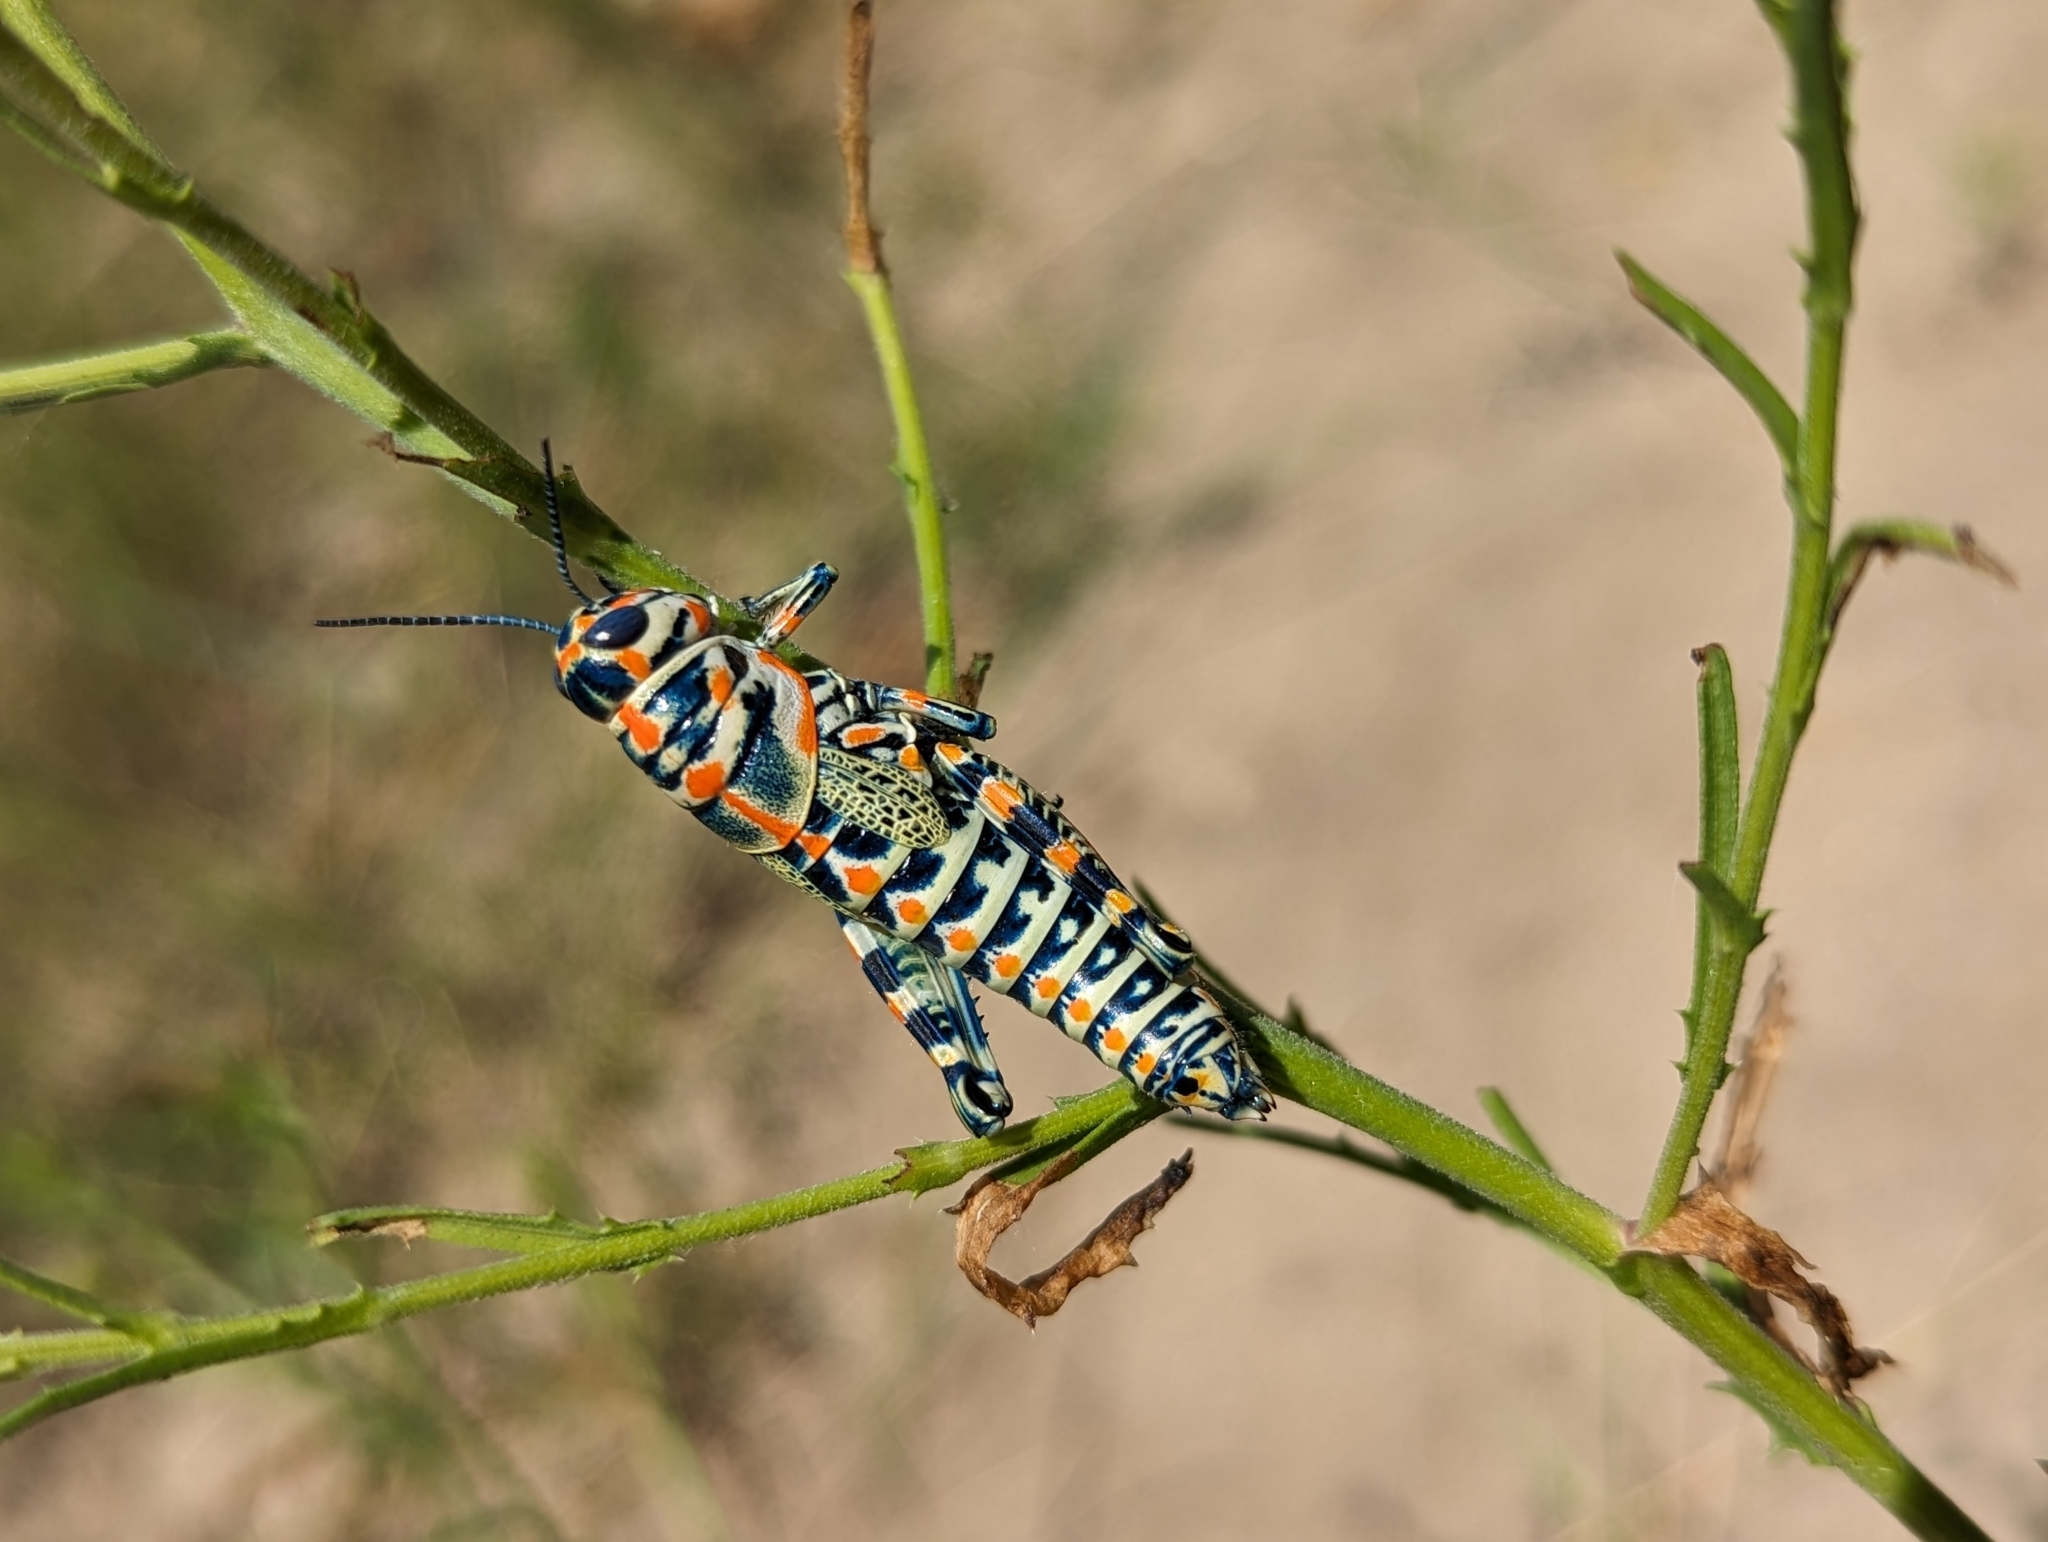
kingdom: Animalia
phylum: Arthropoda
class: Insecta
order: Orthoptera
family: Acrididae
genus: Dactylotum
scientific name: Dactylotum bicolor
